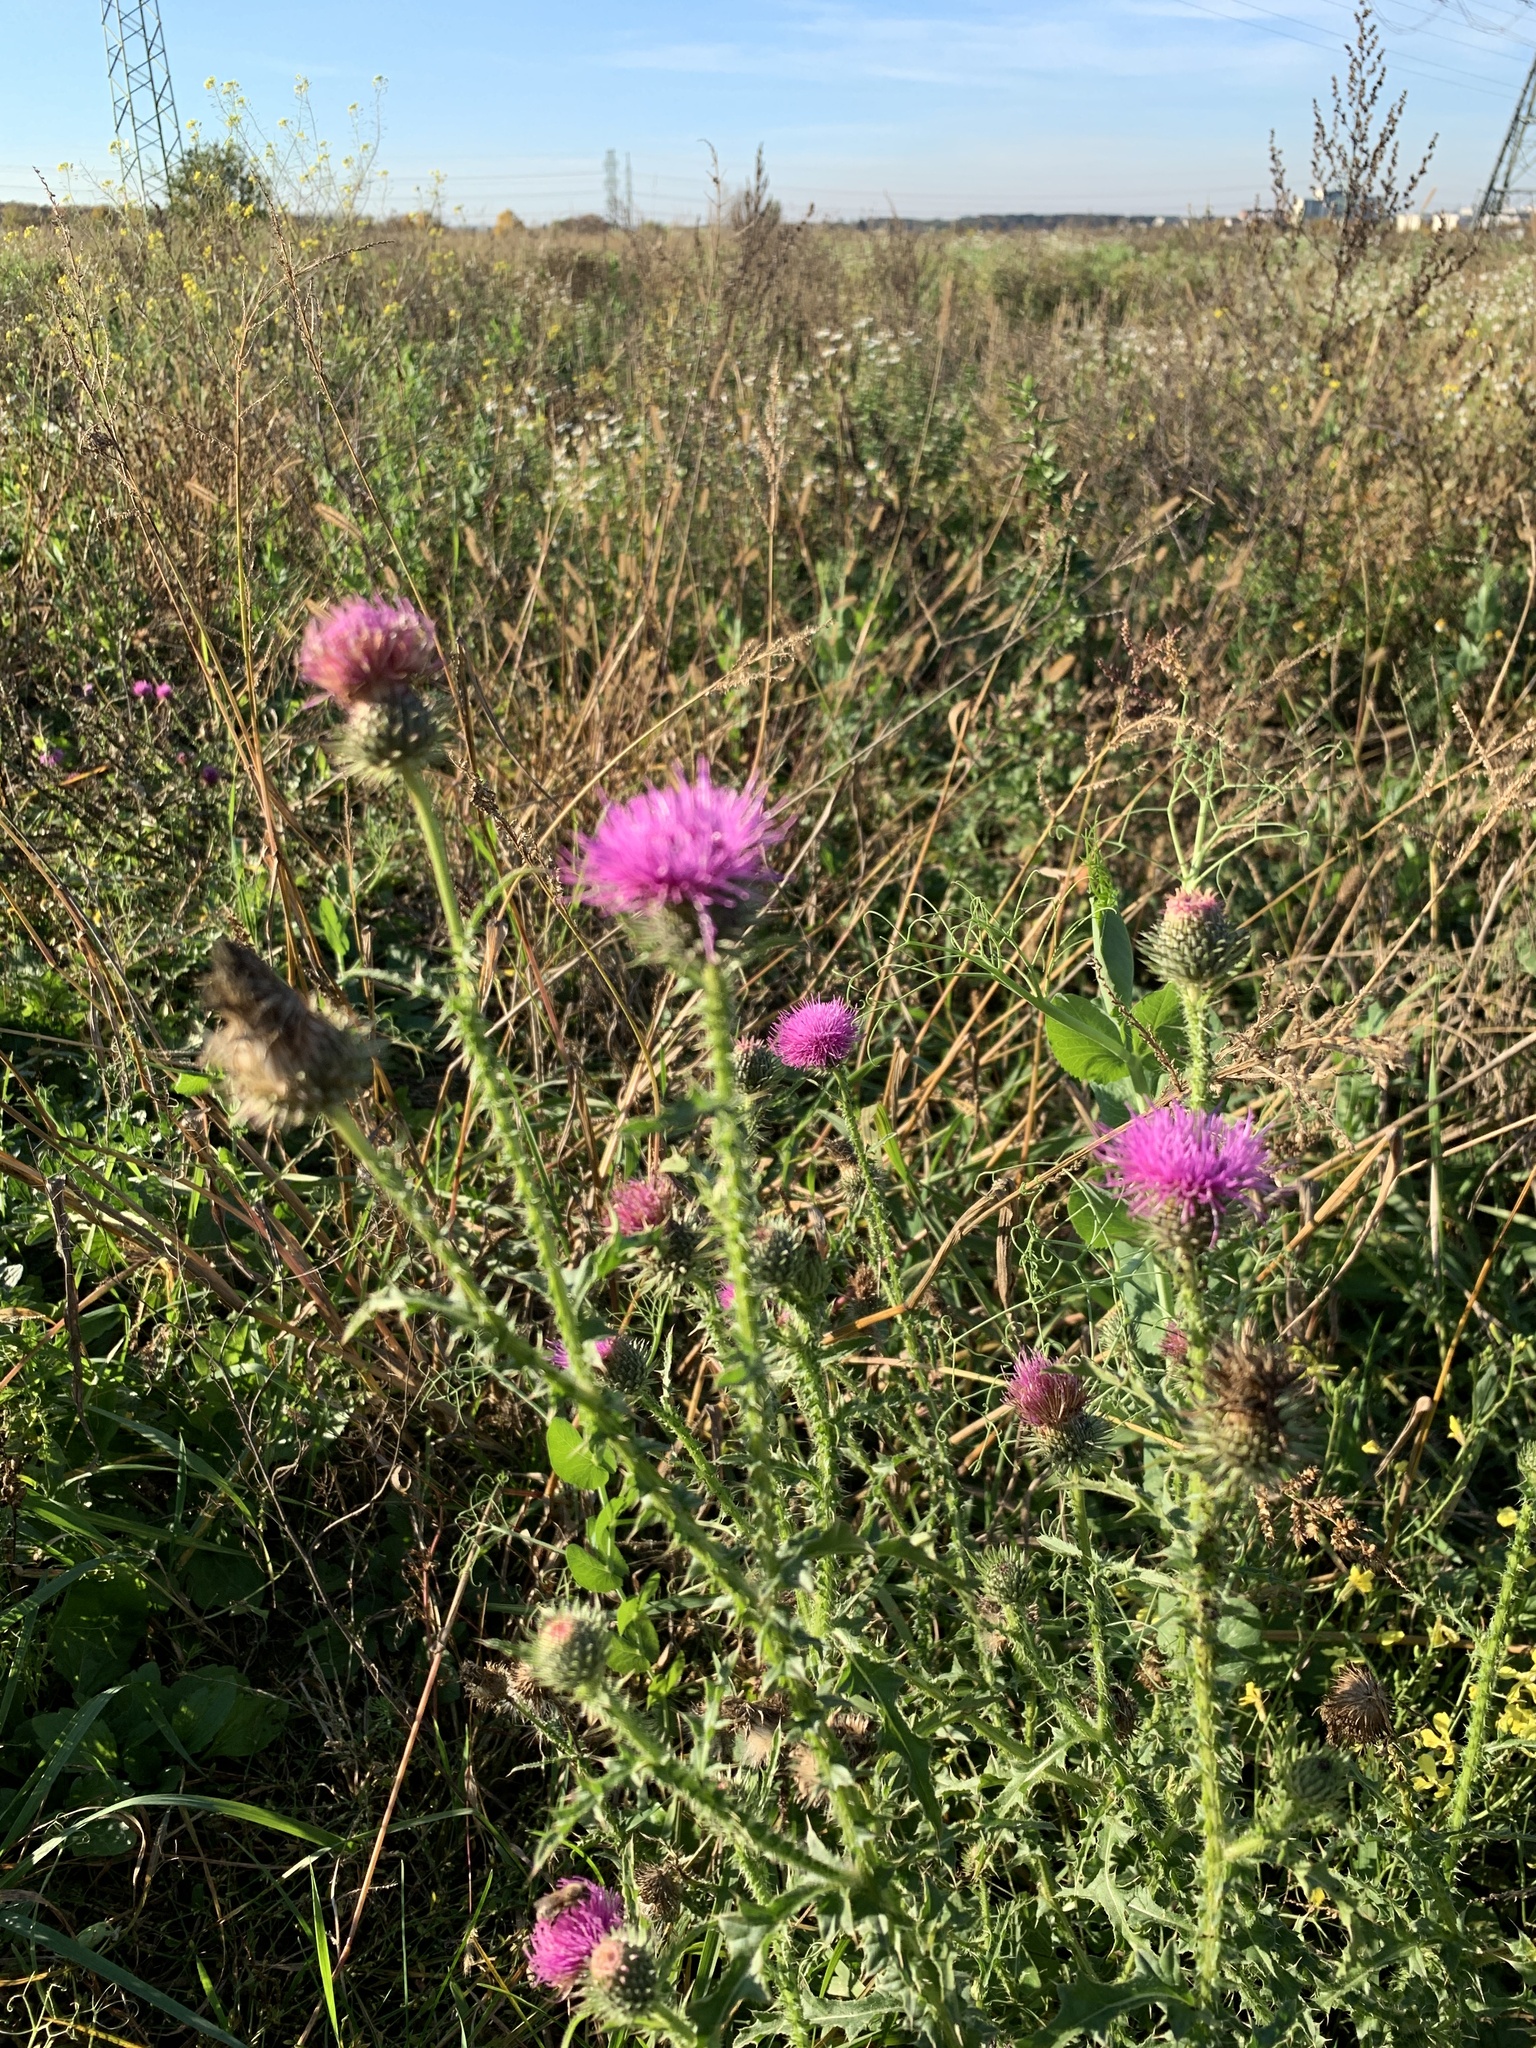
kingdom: Plantae
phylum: Tracheophyta
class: Magnoliopsida
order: Asterales
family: Asteraceae
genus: Carduus
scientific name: Carduus acanthoides
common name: Plumeless thistle
